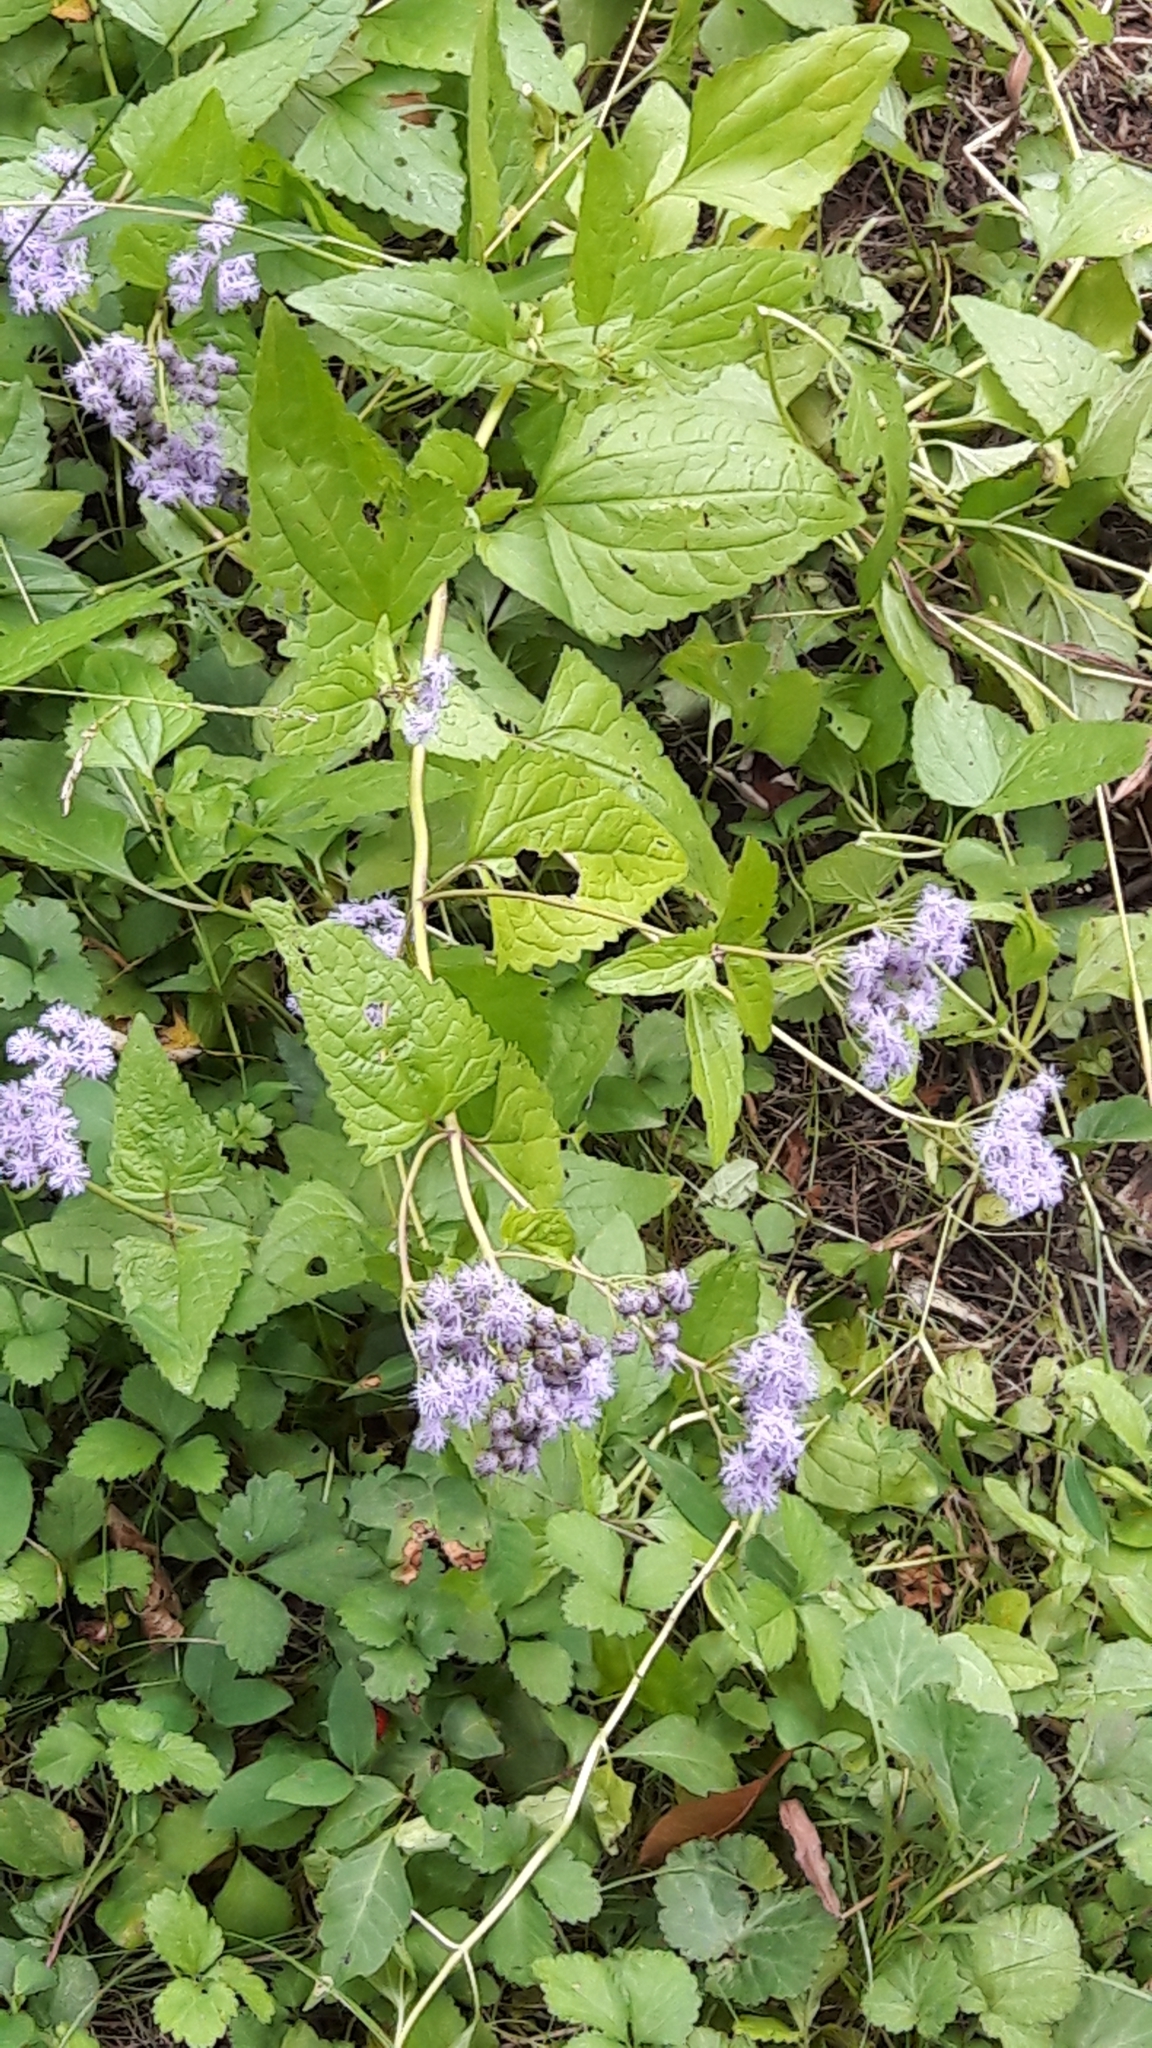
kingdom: Plantae
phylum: Tracheophyta
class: Magnoliopsida
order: Asterales
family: Asteraceae
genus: Conoclinium
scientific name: Conoclinium coelestinum
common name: Blue mistflower
